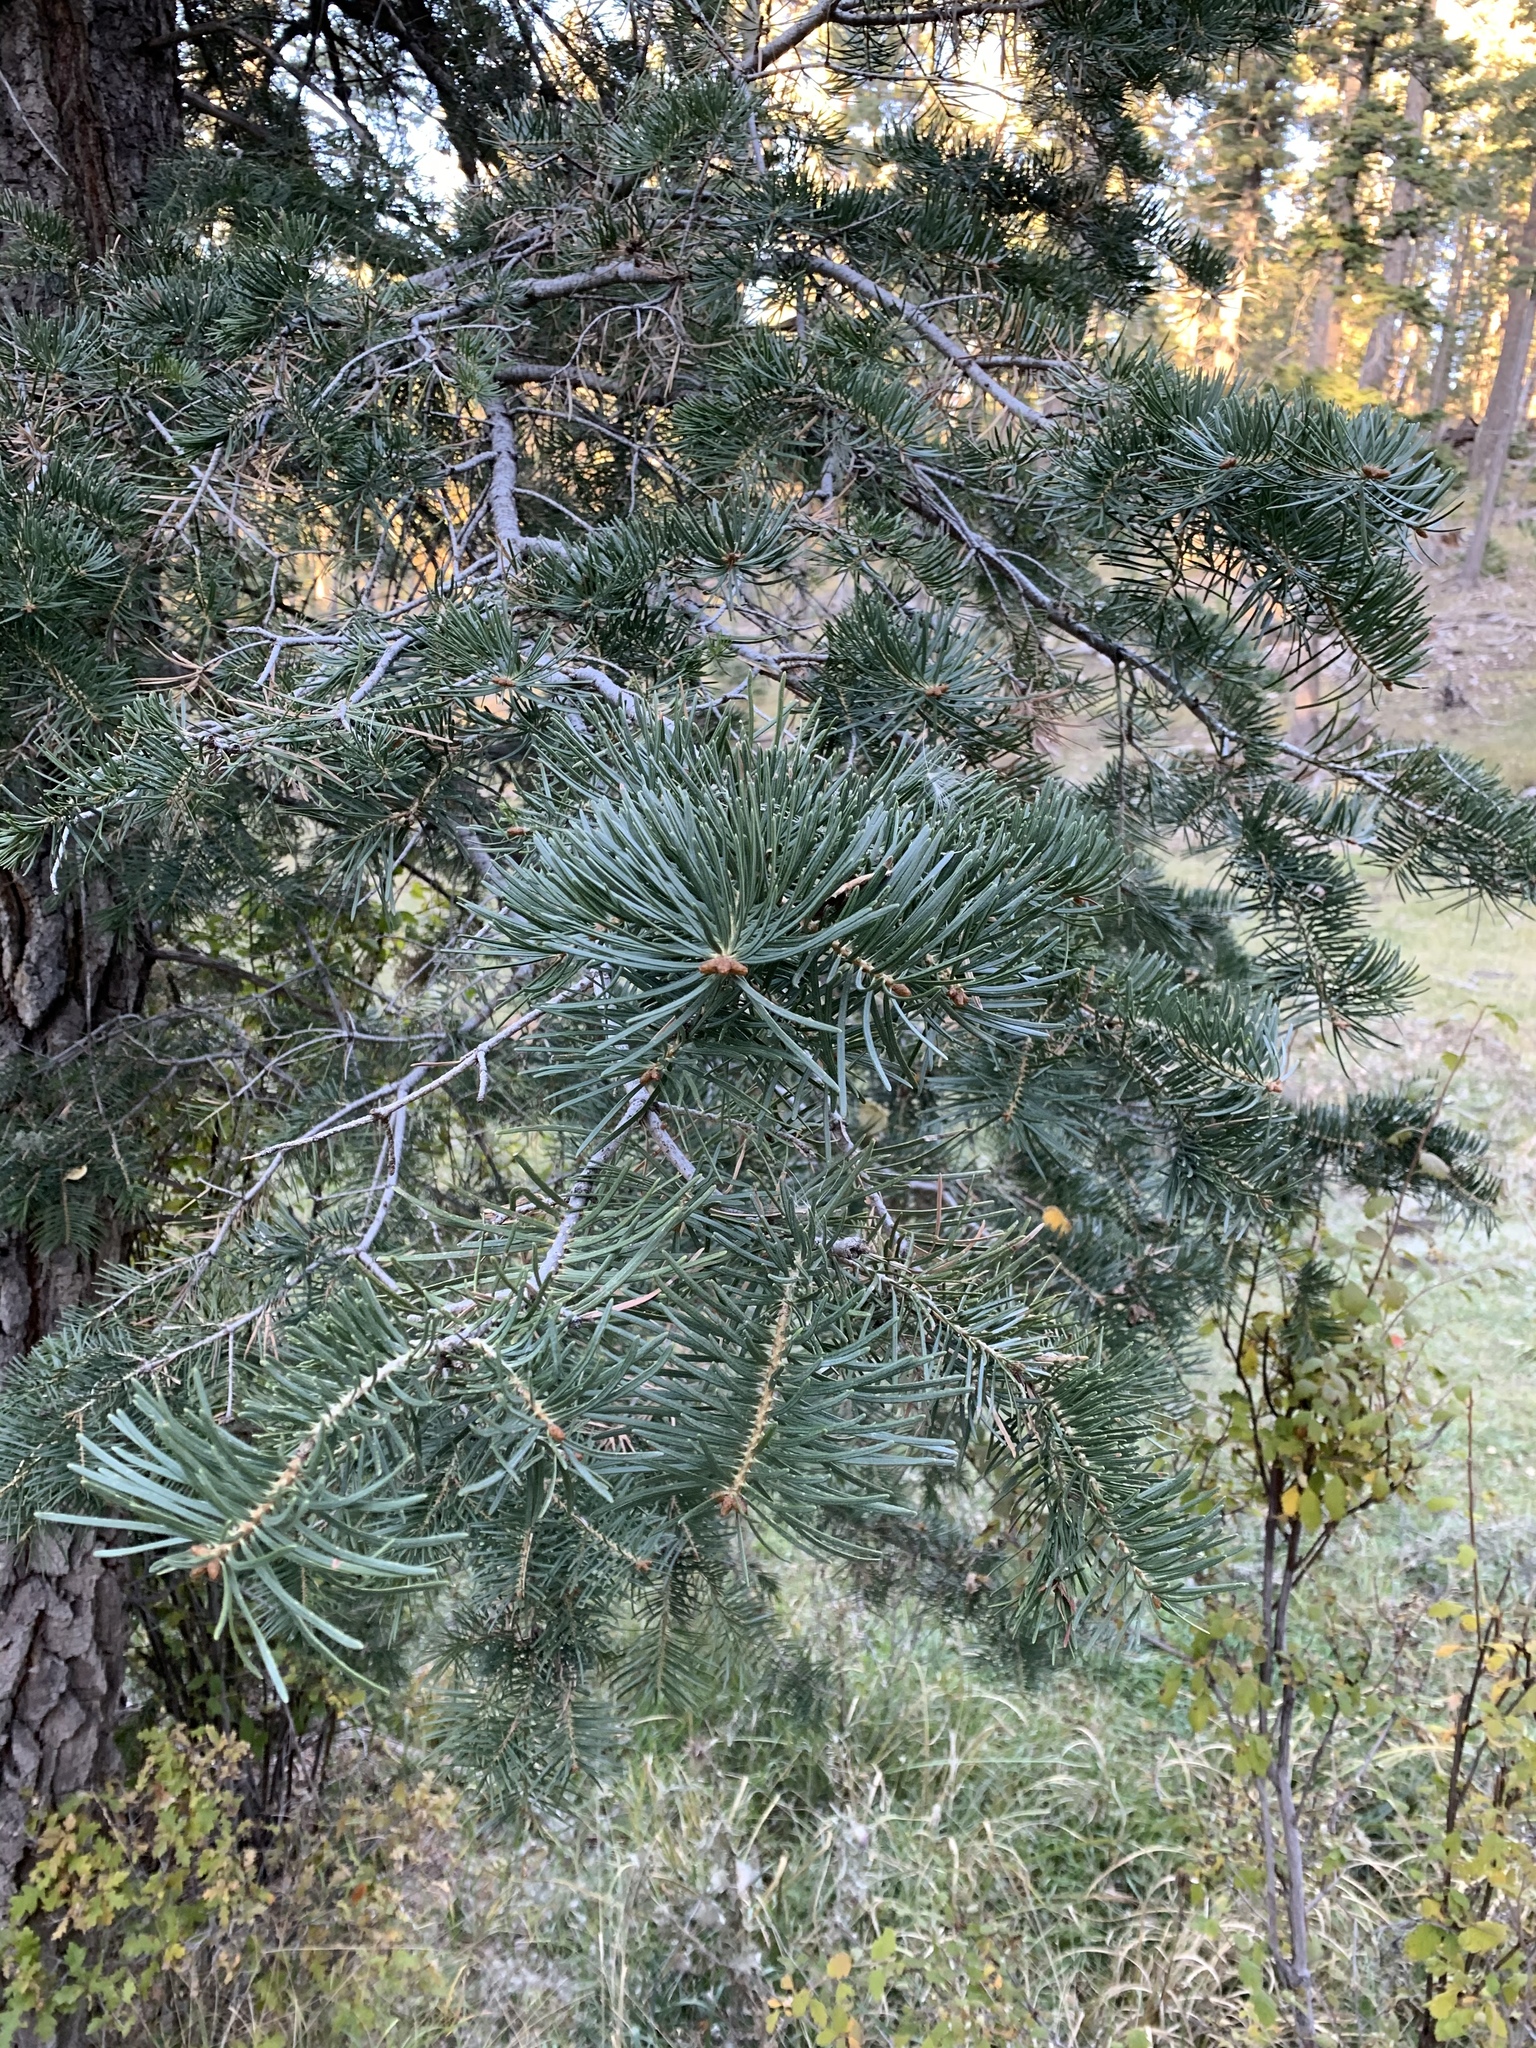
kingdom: Plantae
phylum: Tracheophyta
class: Pinopsida
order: Pinales
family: Pinaceae
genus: Abies
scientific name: Abies concolor
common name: Colorado fir
